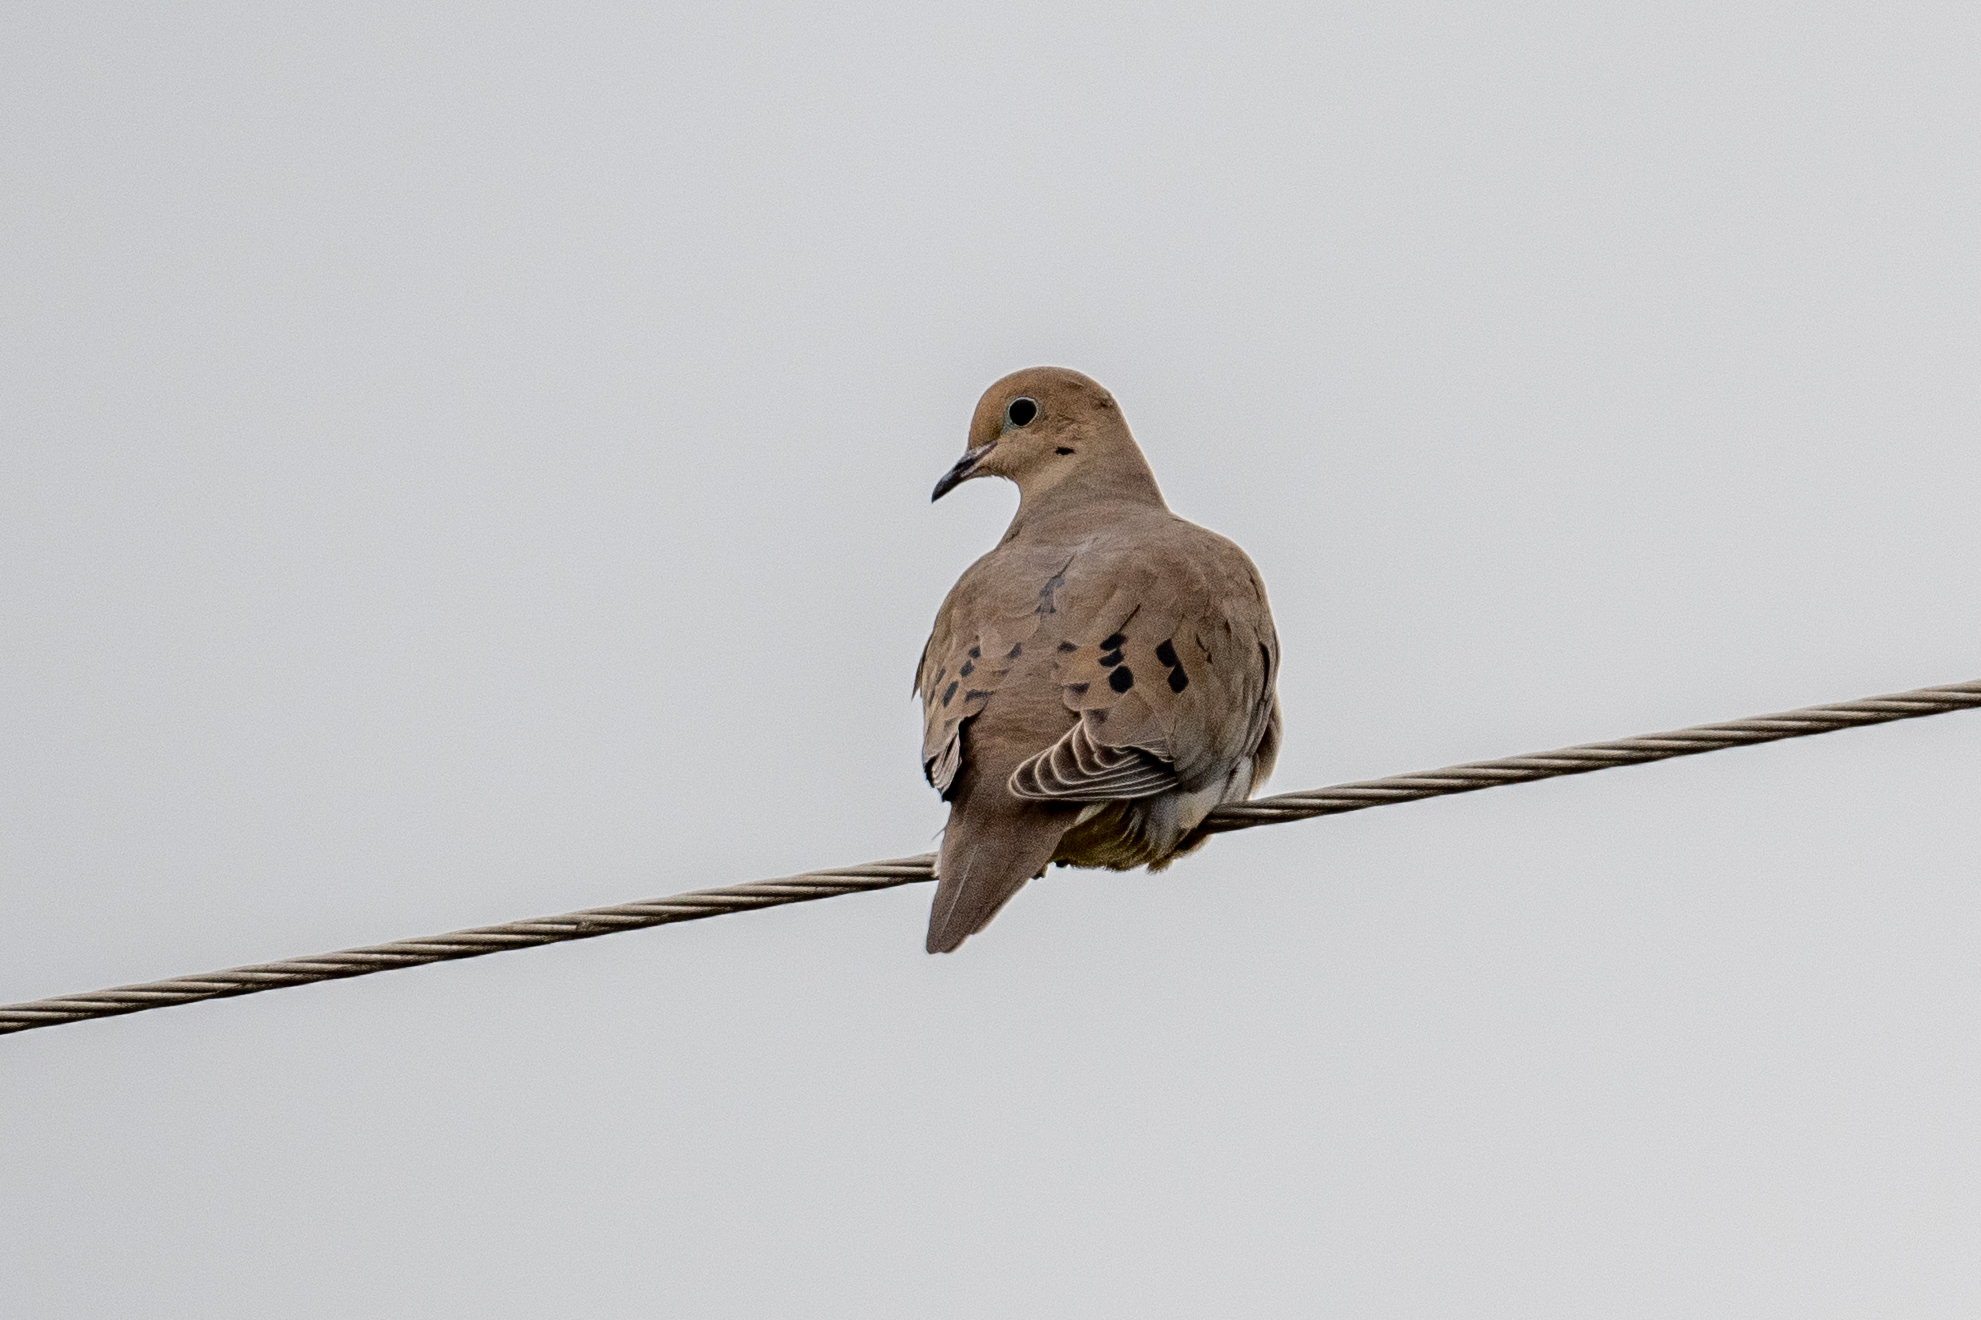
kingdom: Animalia
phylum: Chordata
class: Aves
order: Columbiformes
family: Columbidae
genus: Zenaida
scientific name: Zenaida macroura
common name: Mourning dove
